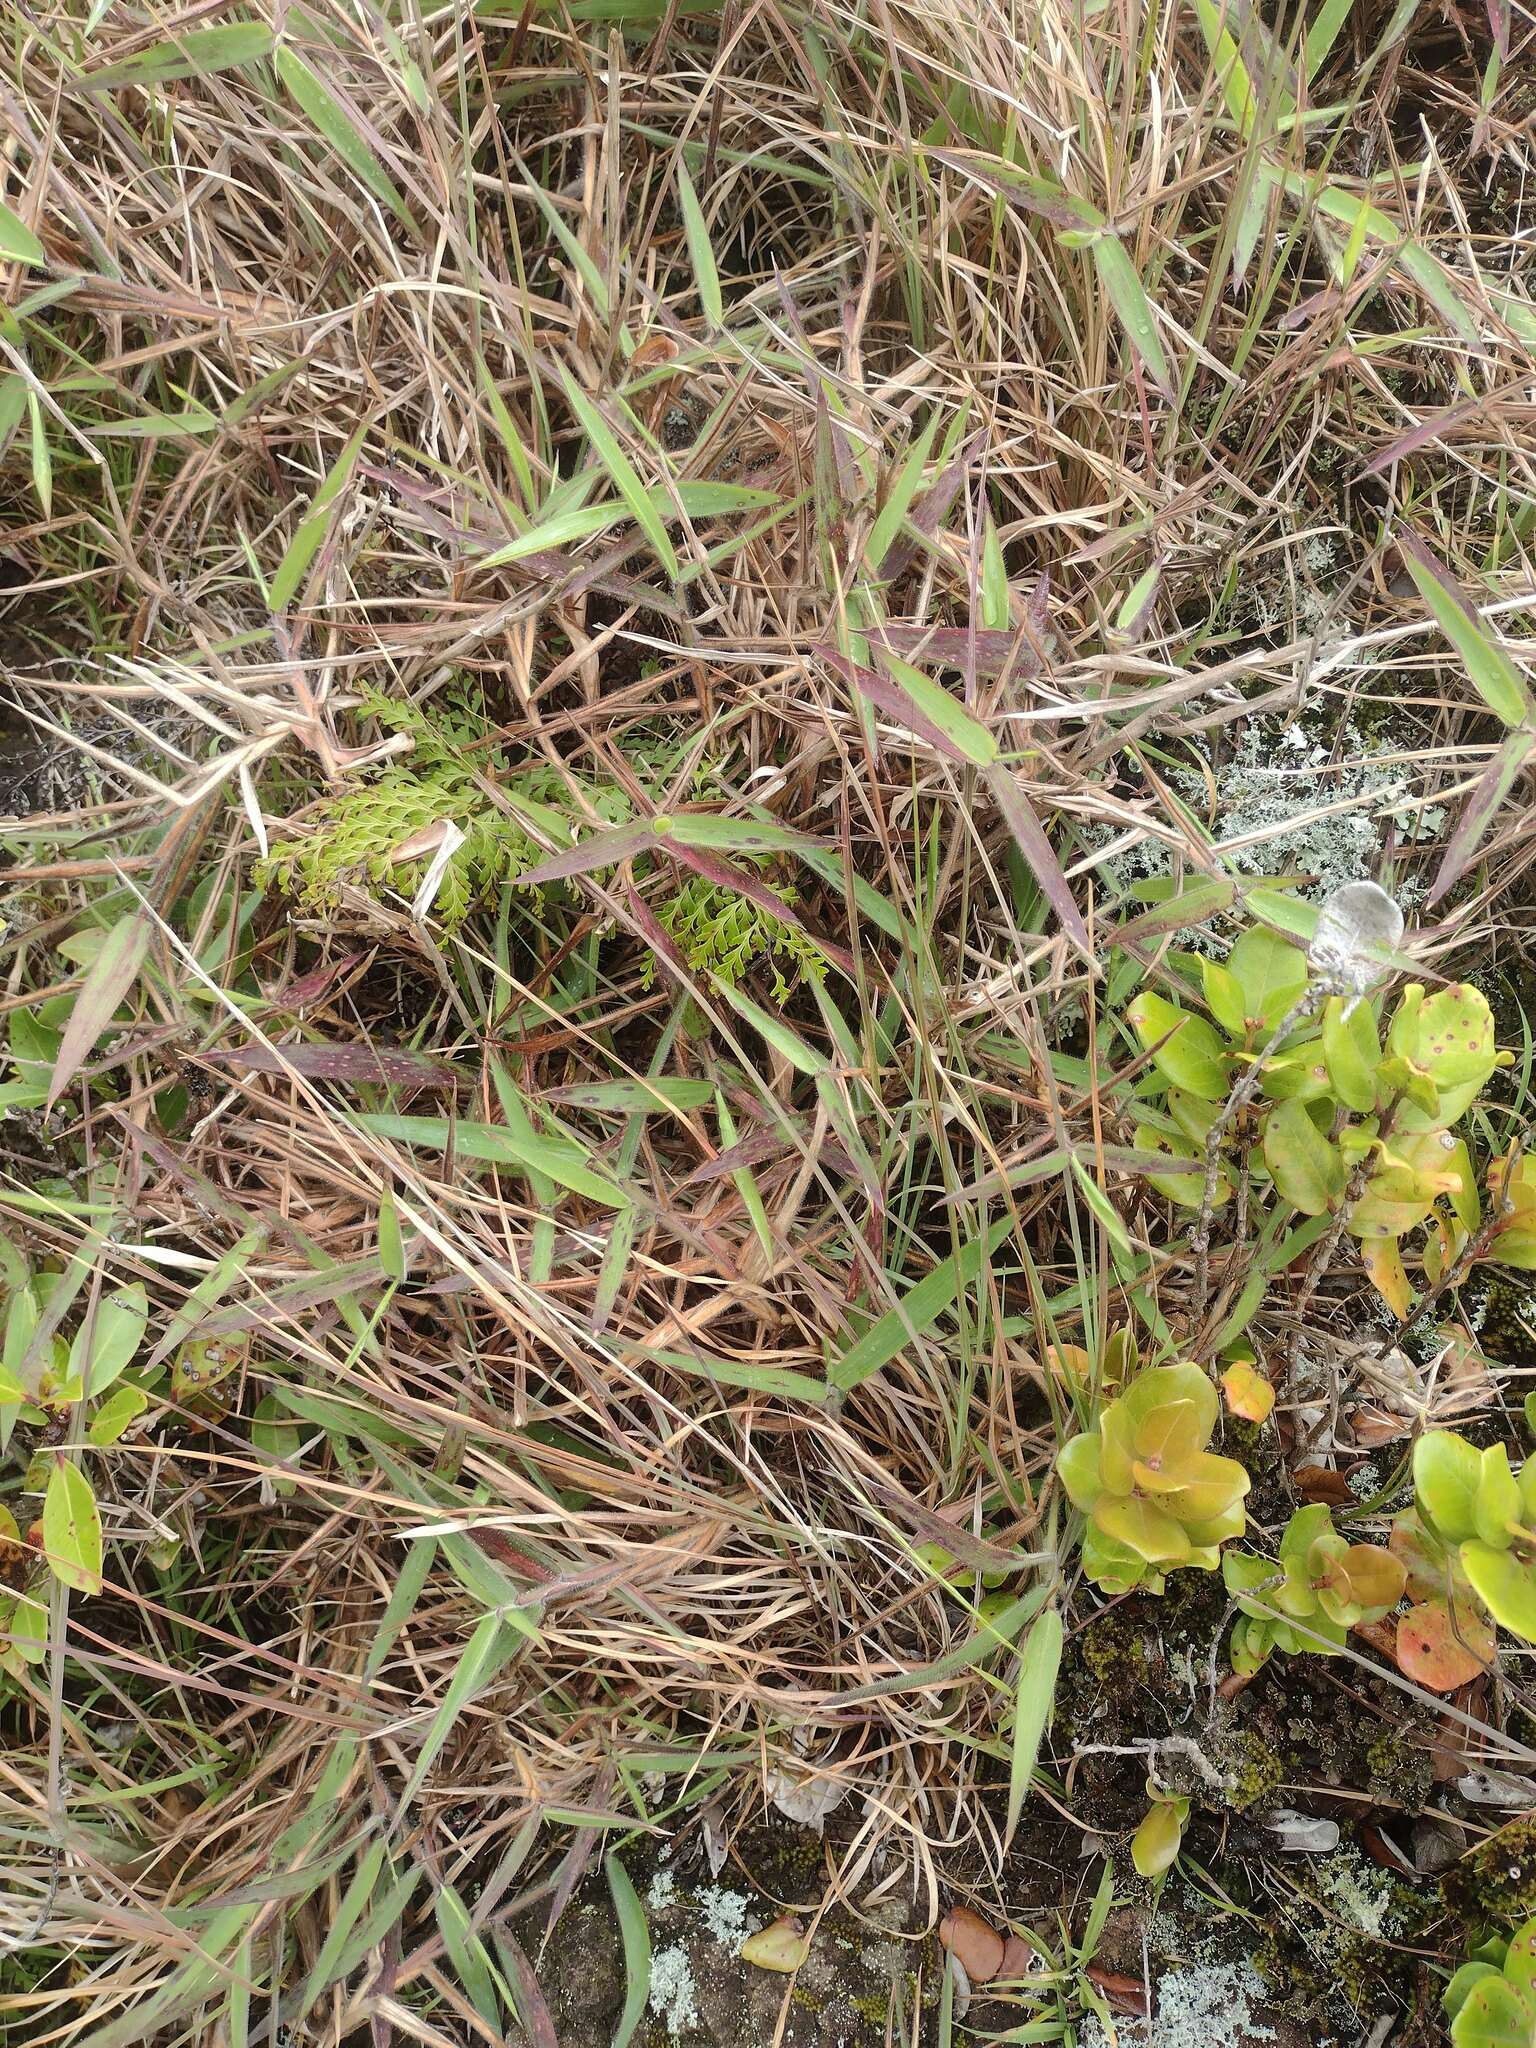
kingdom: Plantae
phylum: Tracheophyta
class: Liliopsida
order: Poales
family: Poaceae
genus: Melinis
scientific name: Melinis minutiflora
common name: Molassesgrass
